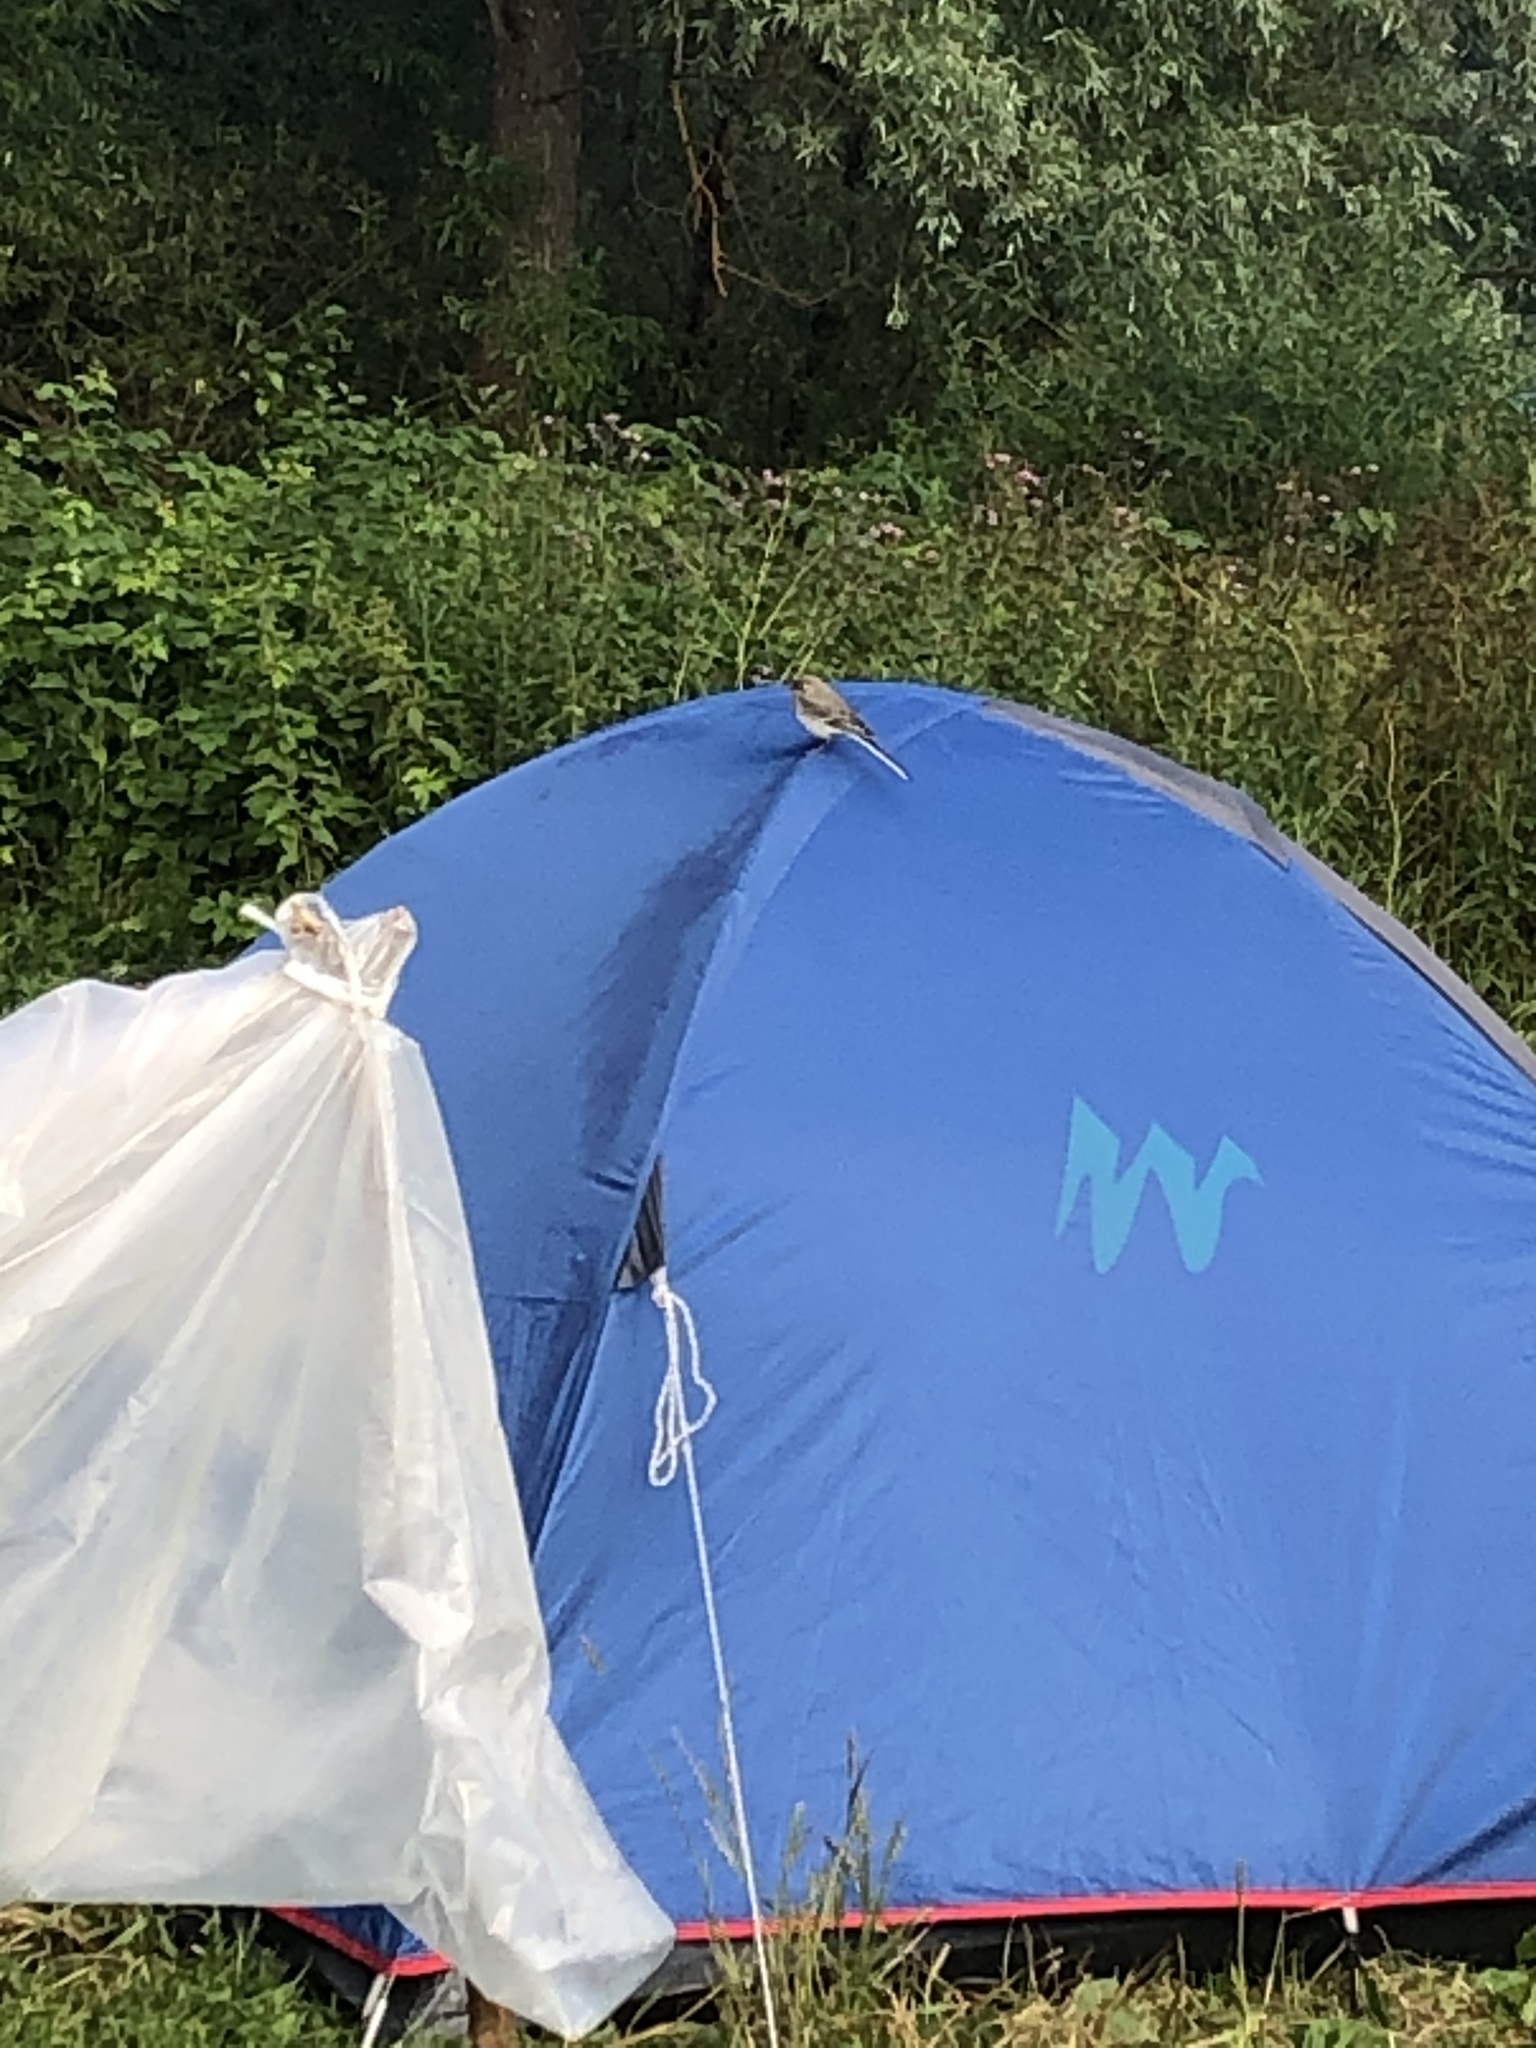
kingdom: Animalia
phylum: Chordata
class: Aves
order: Passeriformes
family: Motacillidae
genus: Motacilla
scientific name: Motacilla alba
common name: White wagtail
